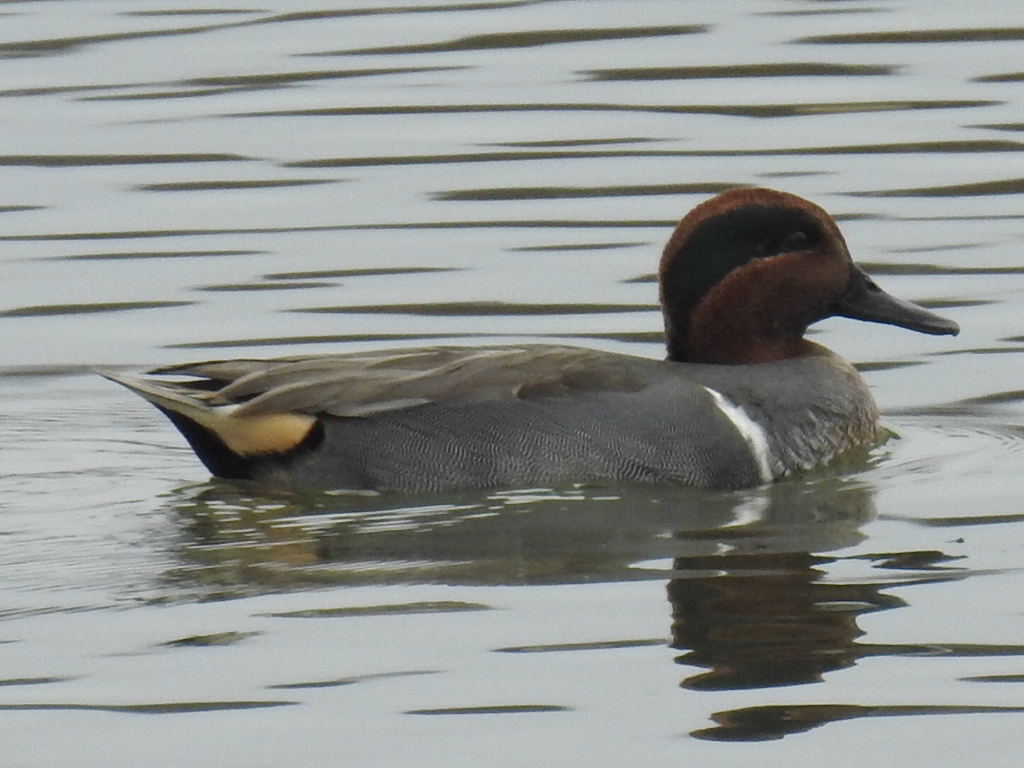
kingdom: Animalia
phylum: Chordata
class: Aves
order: Anseriformes
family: Anatidae
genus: Anas
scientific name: Anas crecca
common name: Eurasian teal
